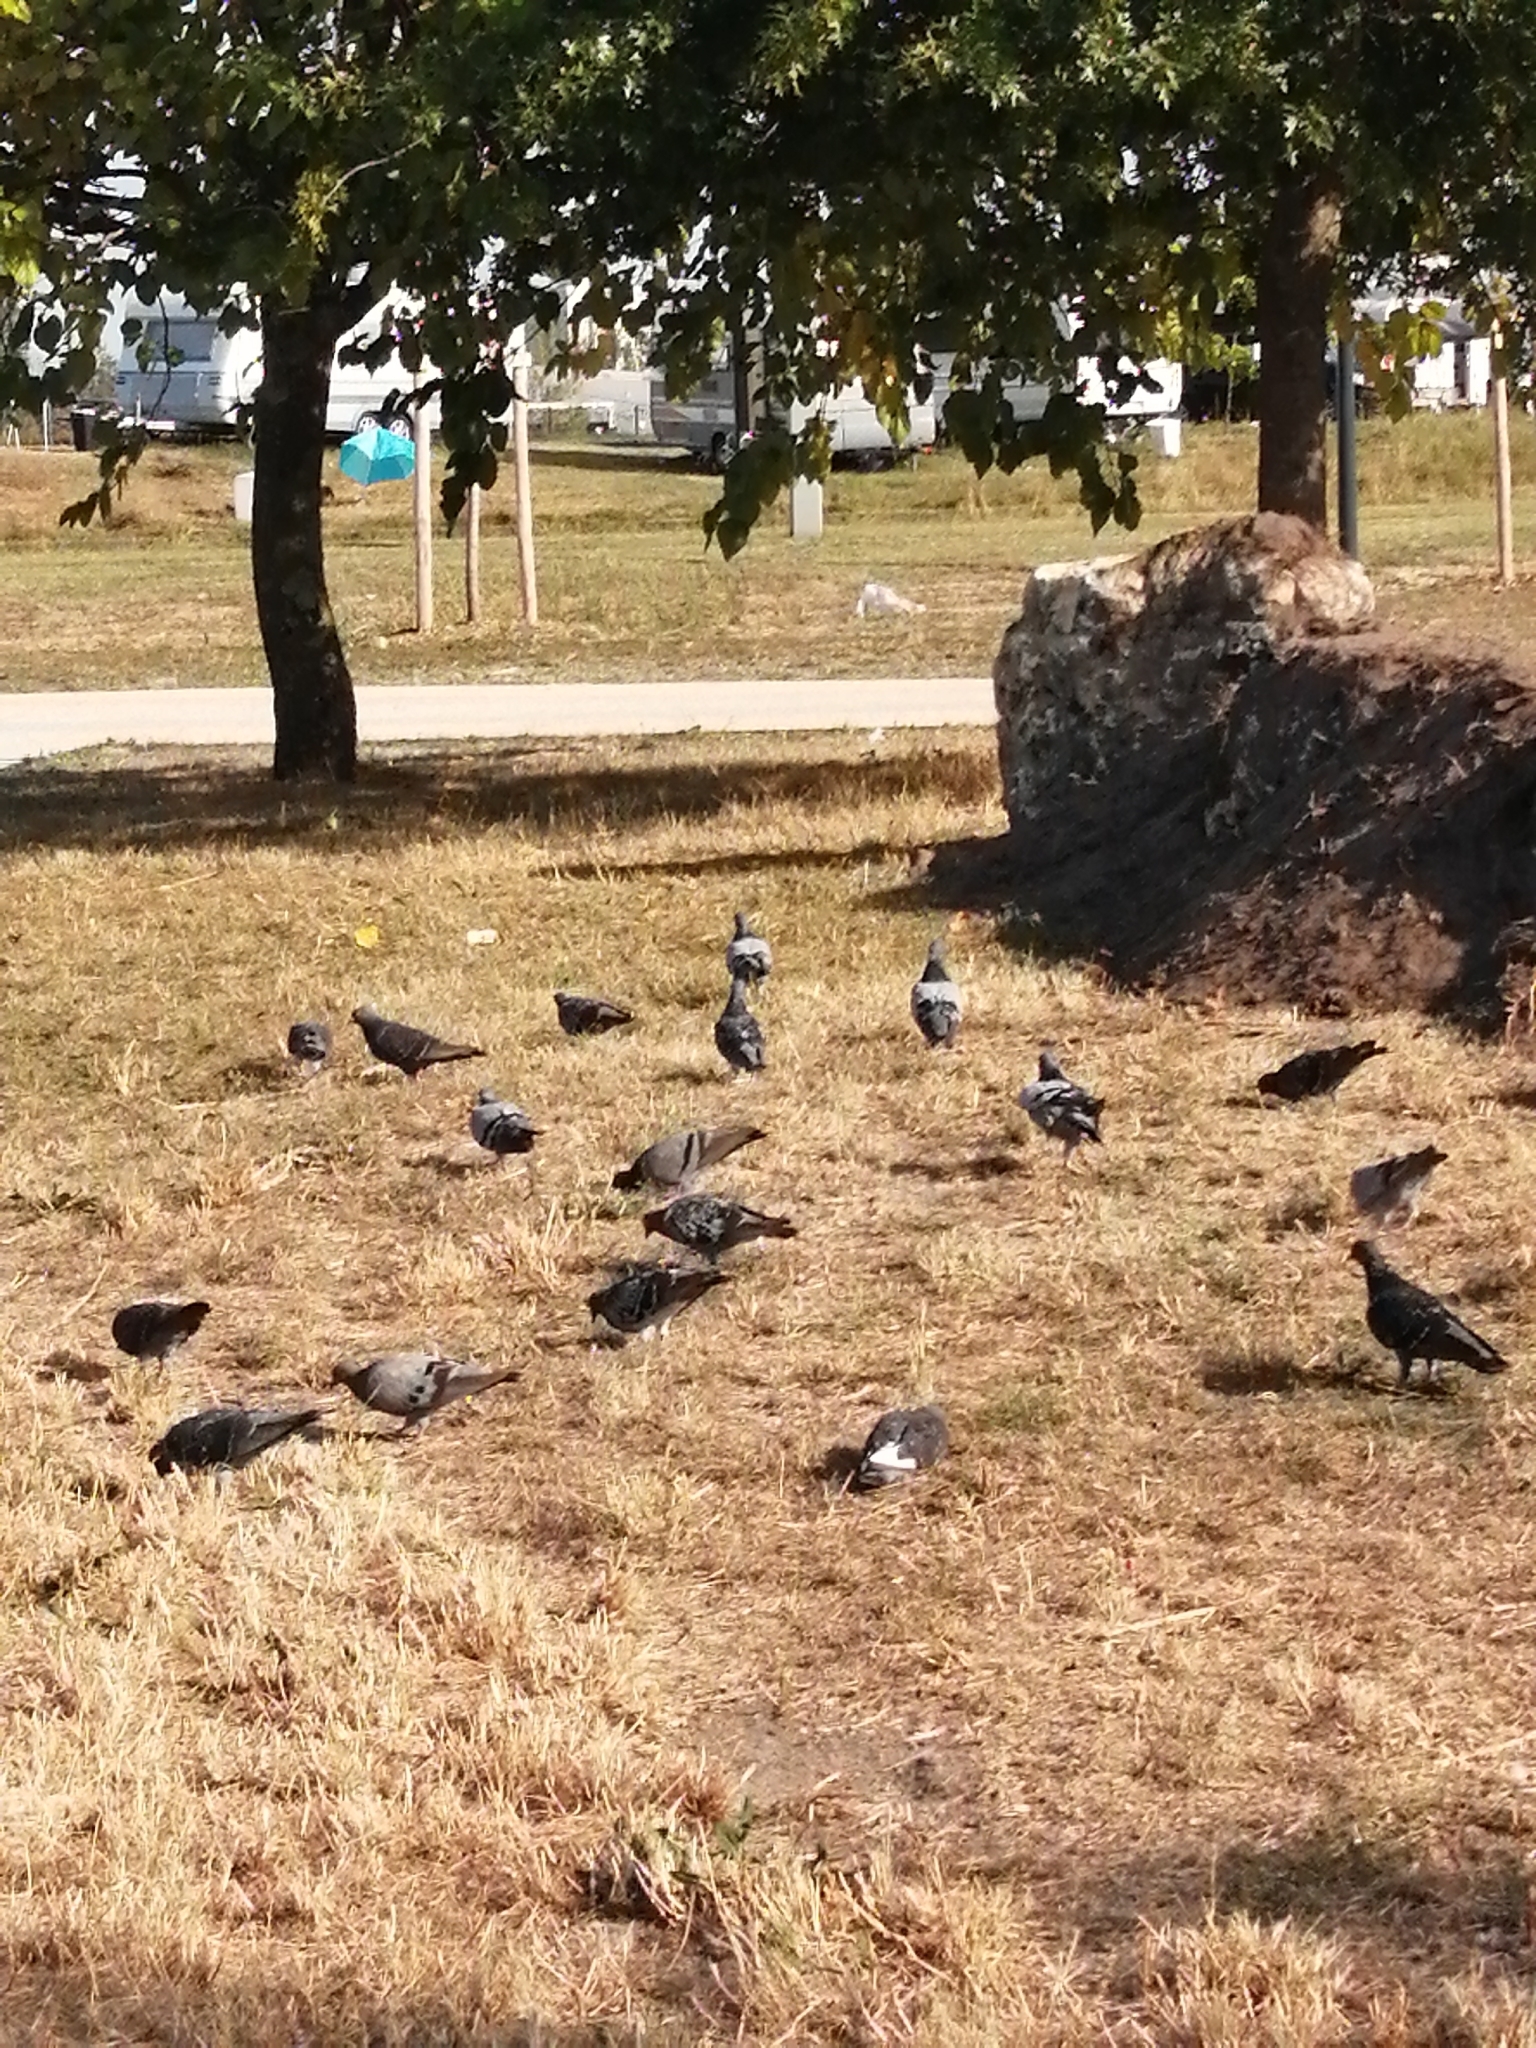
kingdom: Animalia
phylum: Chordata
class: Aves
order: Columbiformes
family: Columbidae
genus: Columba
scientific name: Columba livia
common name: Rock pigeon
